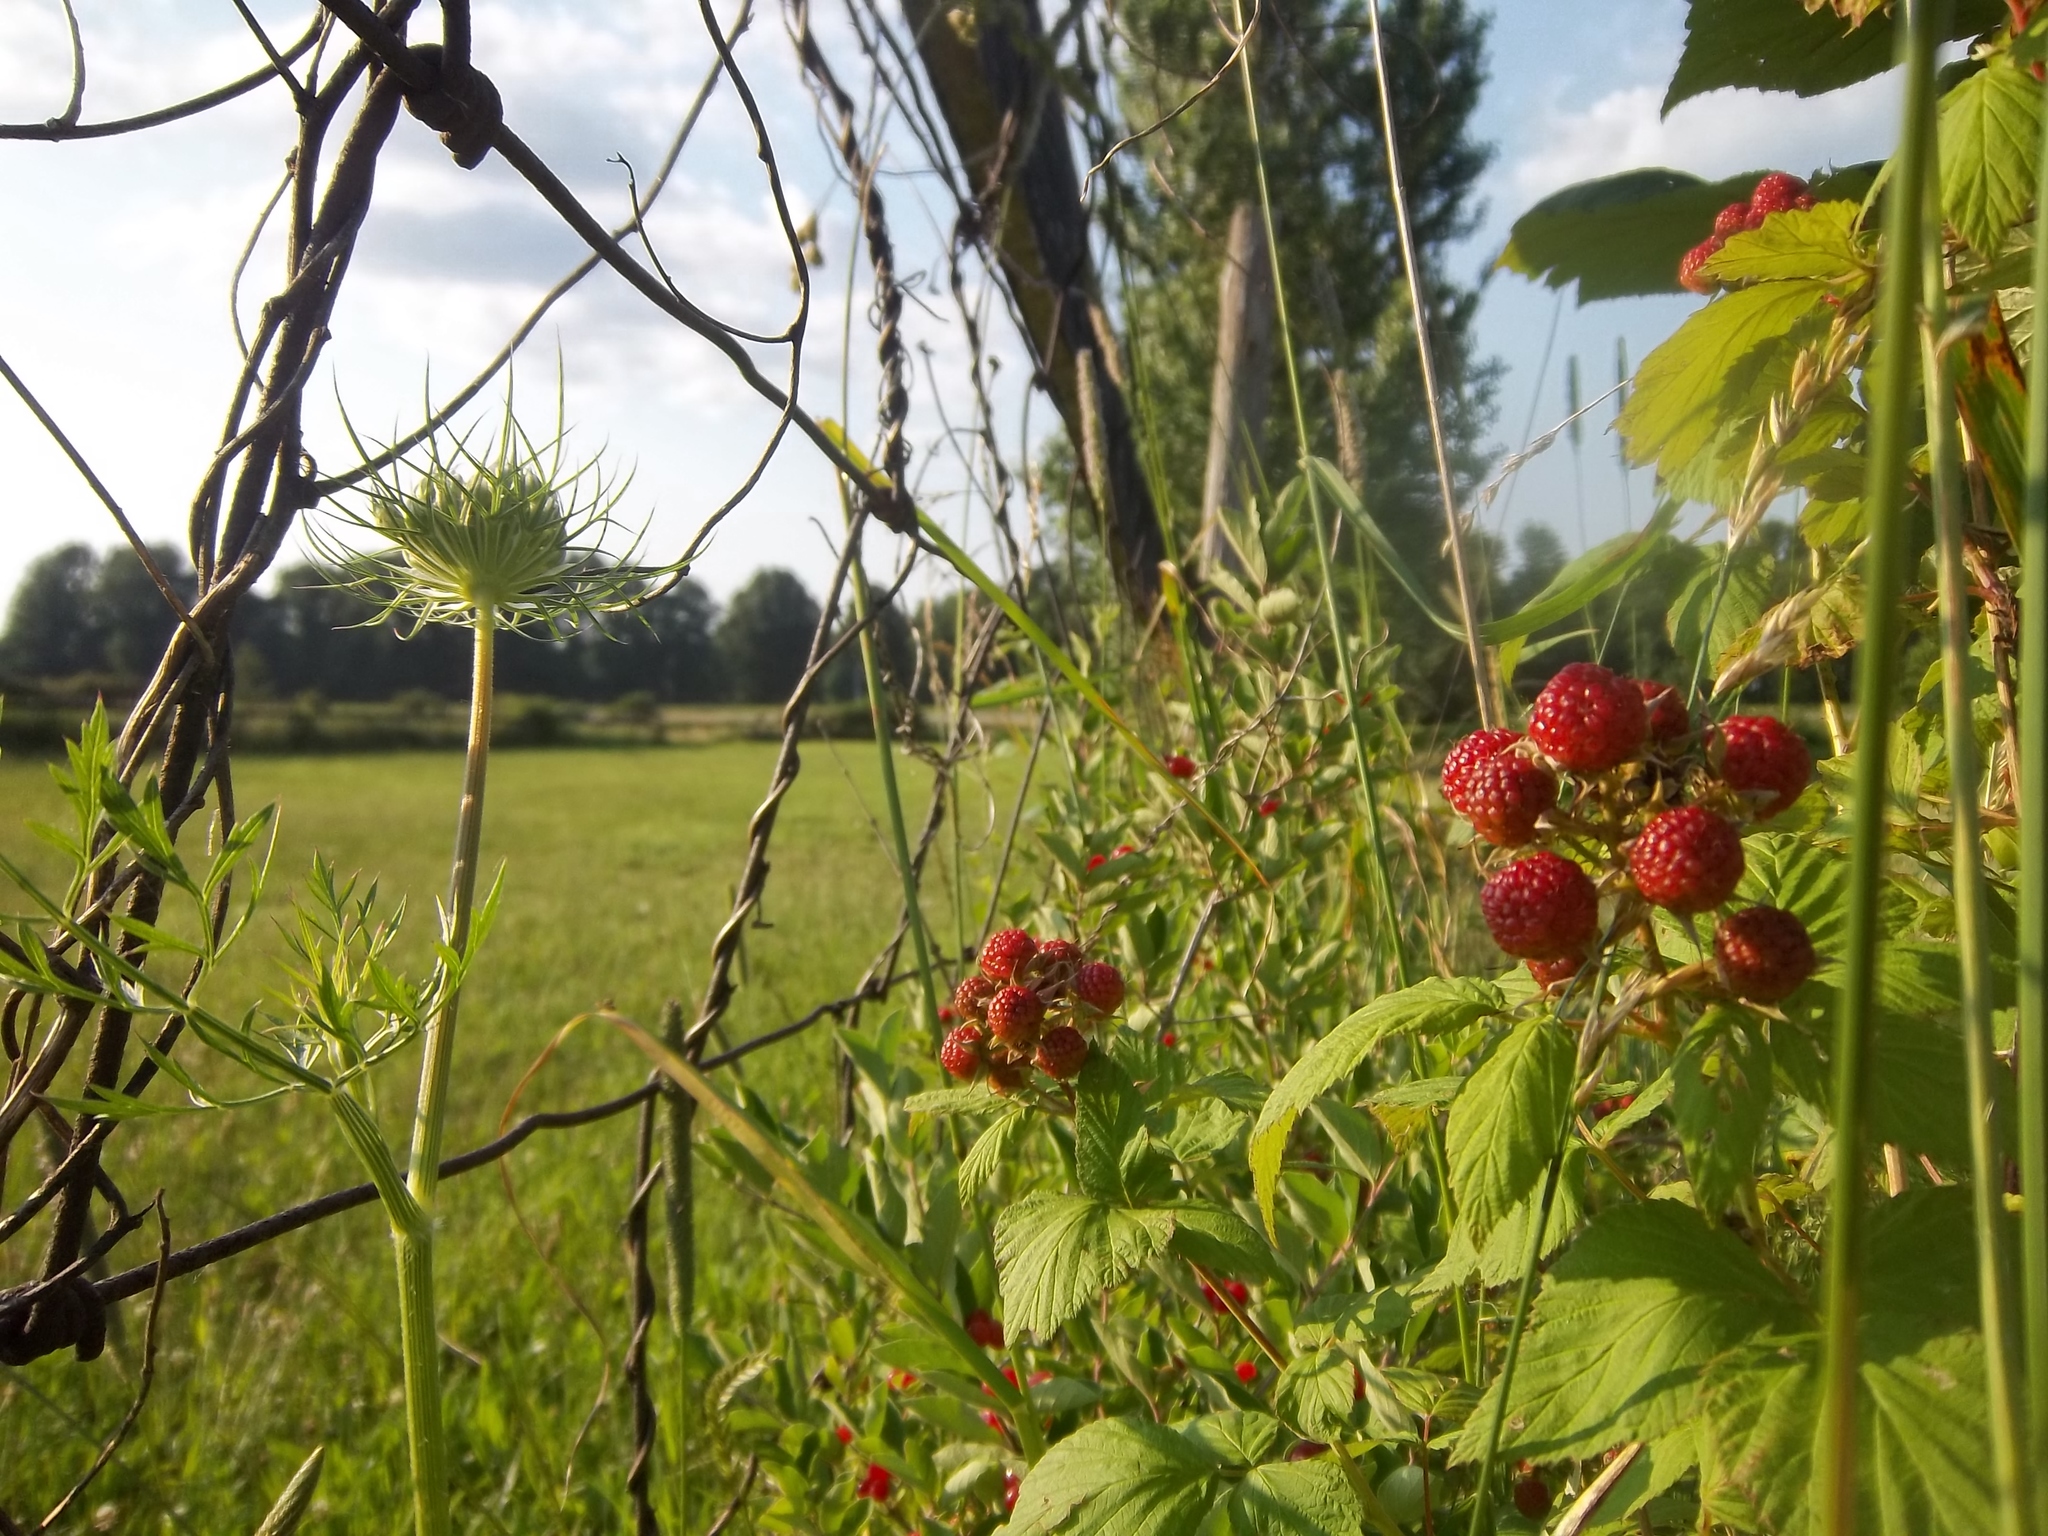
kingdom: Plantae
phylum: Tracheophyta
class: Magnoliopsida
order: Rosales
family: Rosaceae
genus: Rubus
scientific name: Rubus occidentalis
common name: Black raspberry
